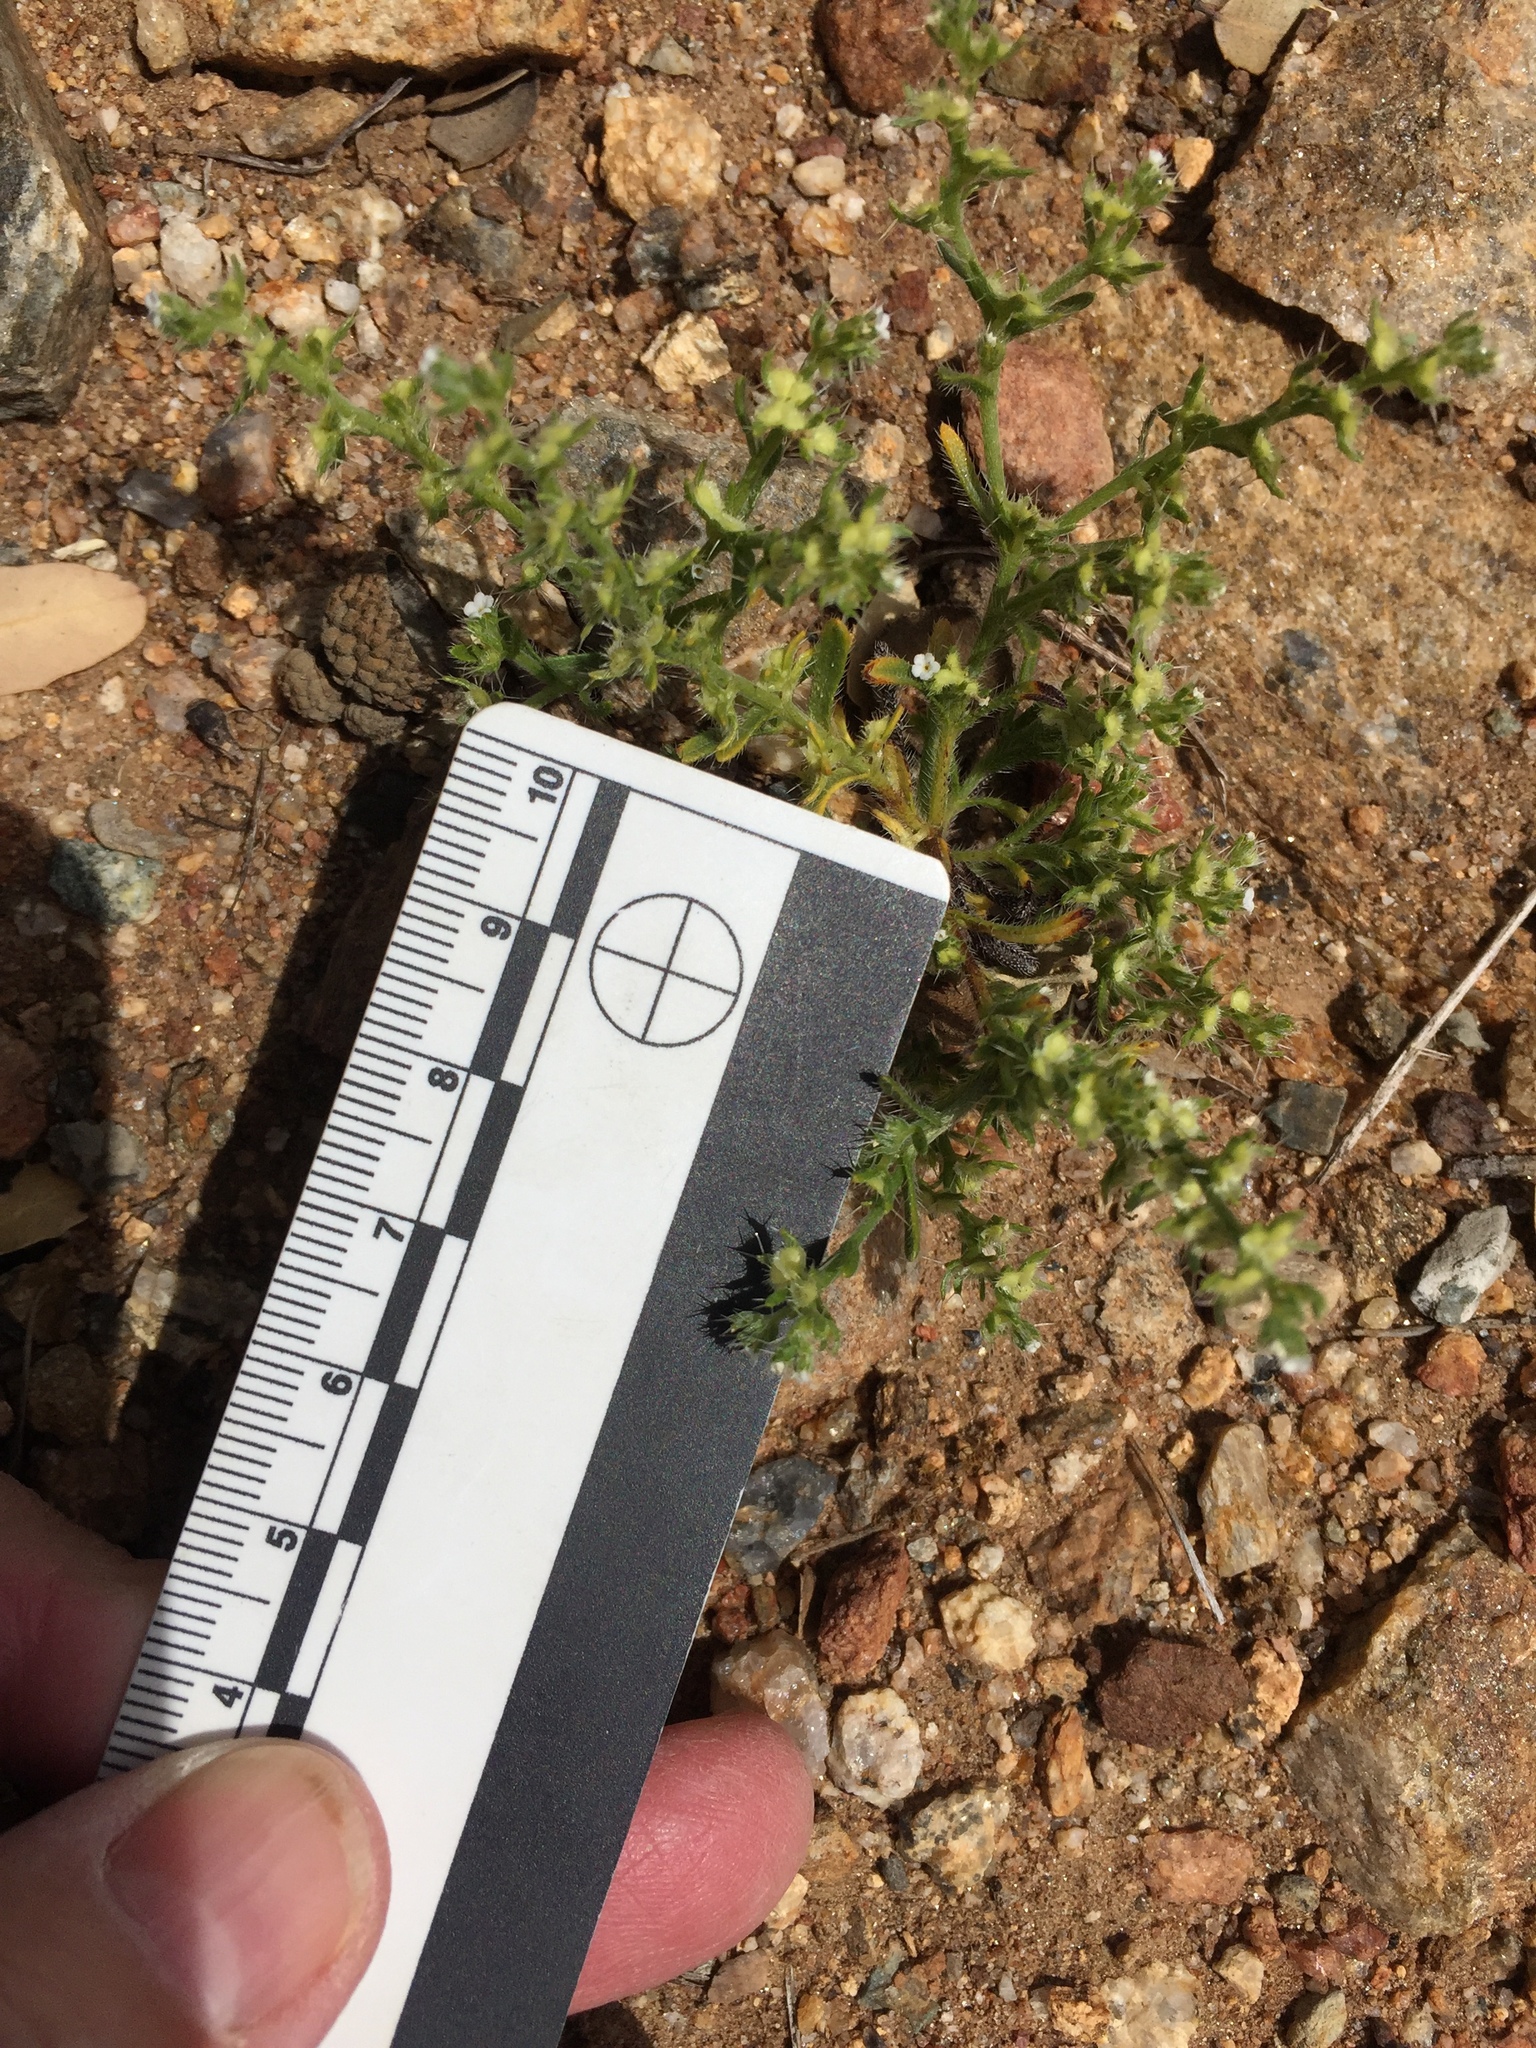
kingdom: Plantae
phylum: Tracheophyta
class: Magnoliopsida
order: Boraginales
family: Boraginaceae
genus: Pectocarya
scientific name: Pectocarya setosa
